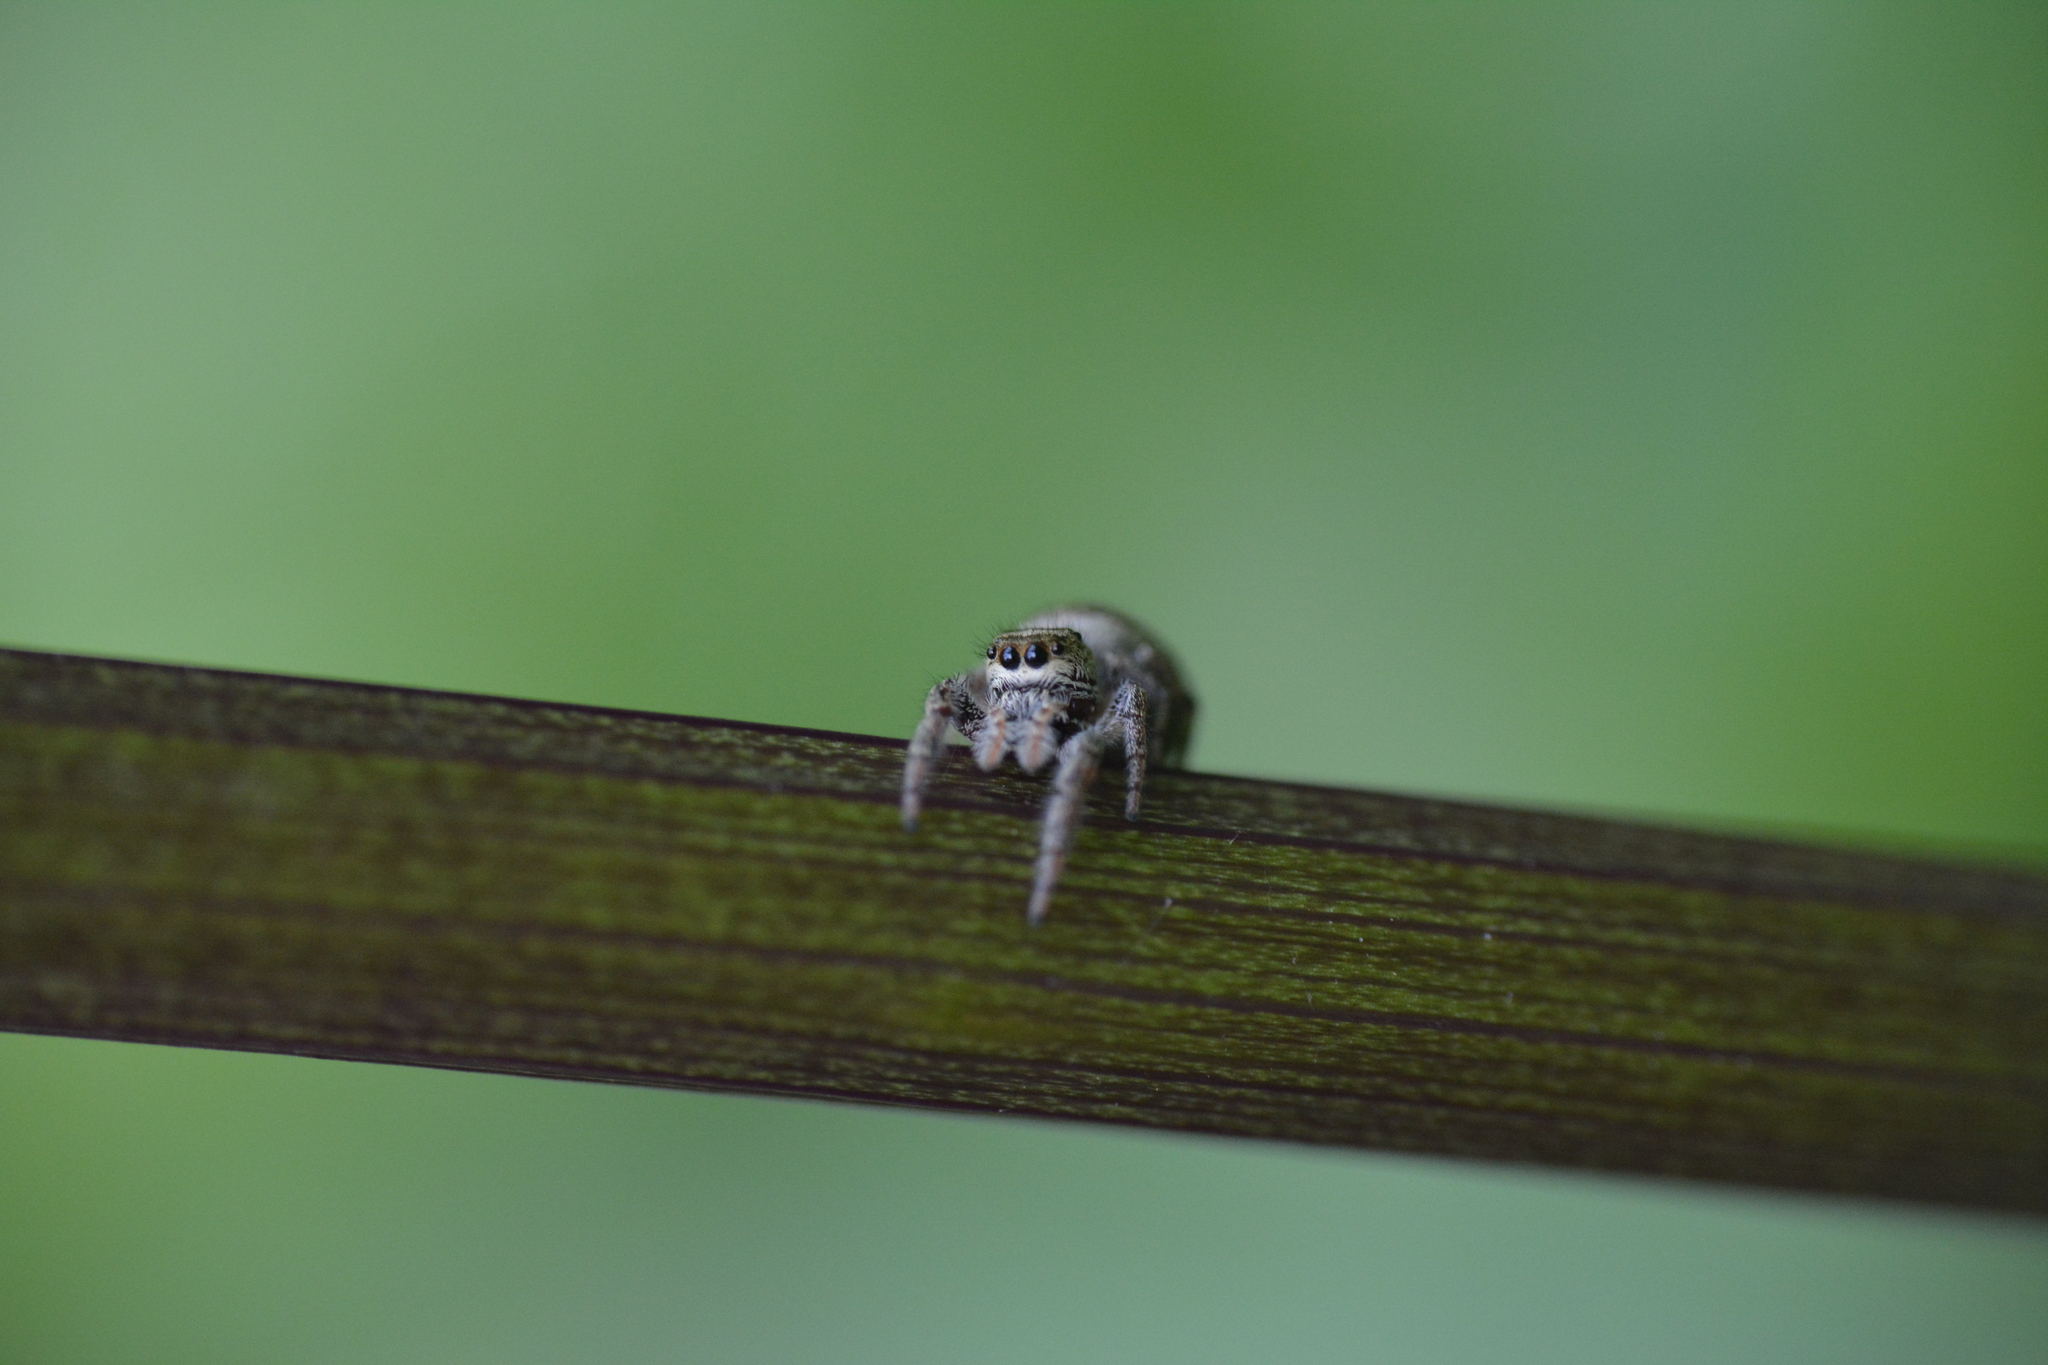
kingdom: Animalia
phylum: Arthropoda
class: Arachnida
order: Araneae
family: Salticidae
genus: Eris
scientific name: Eris militaris
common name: Bronze jumper
